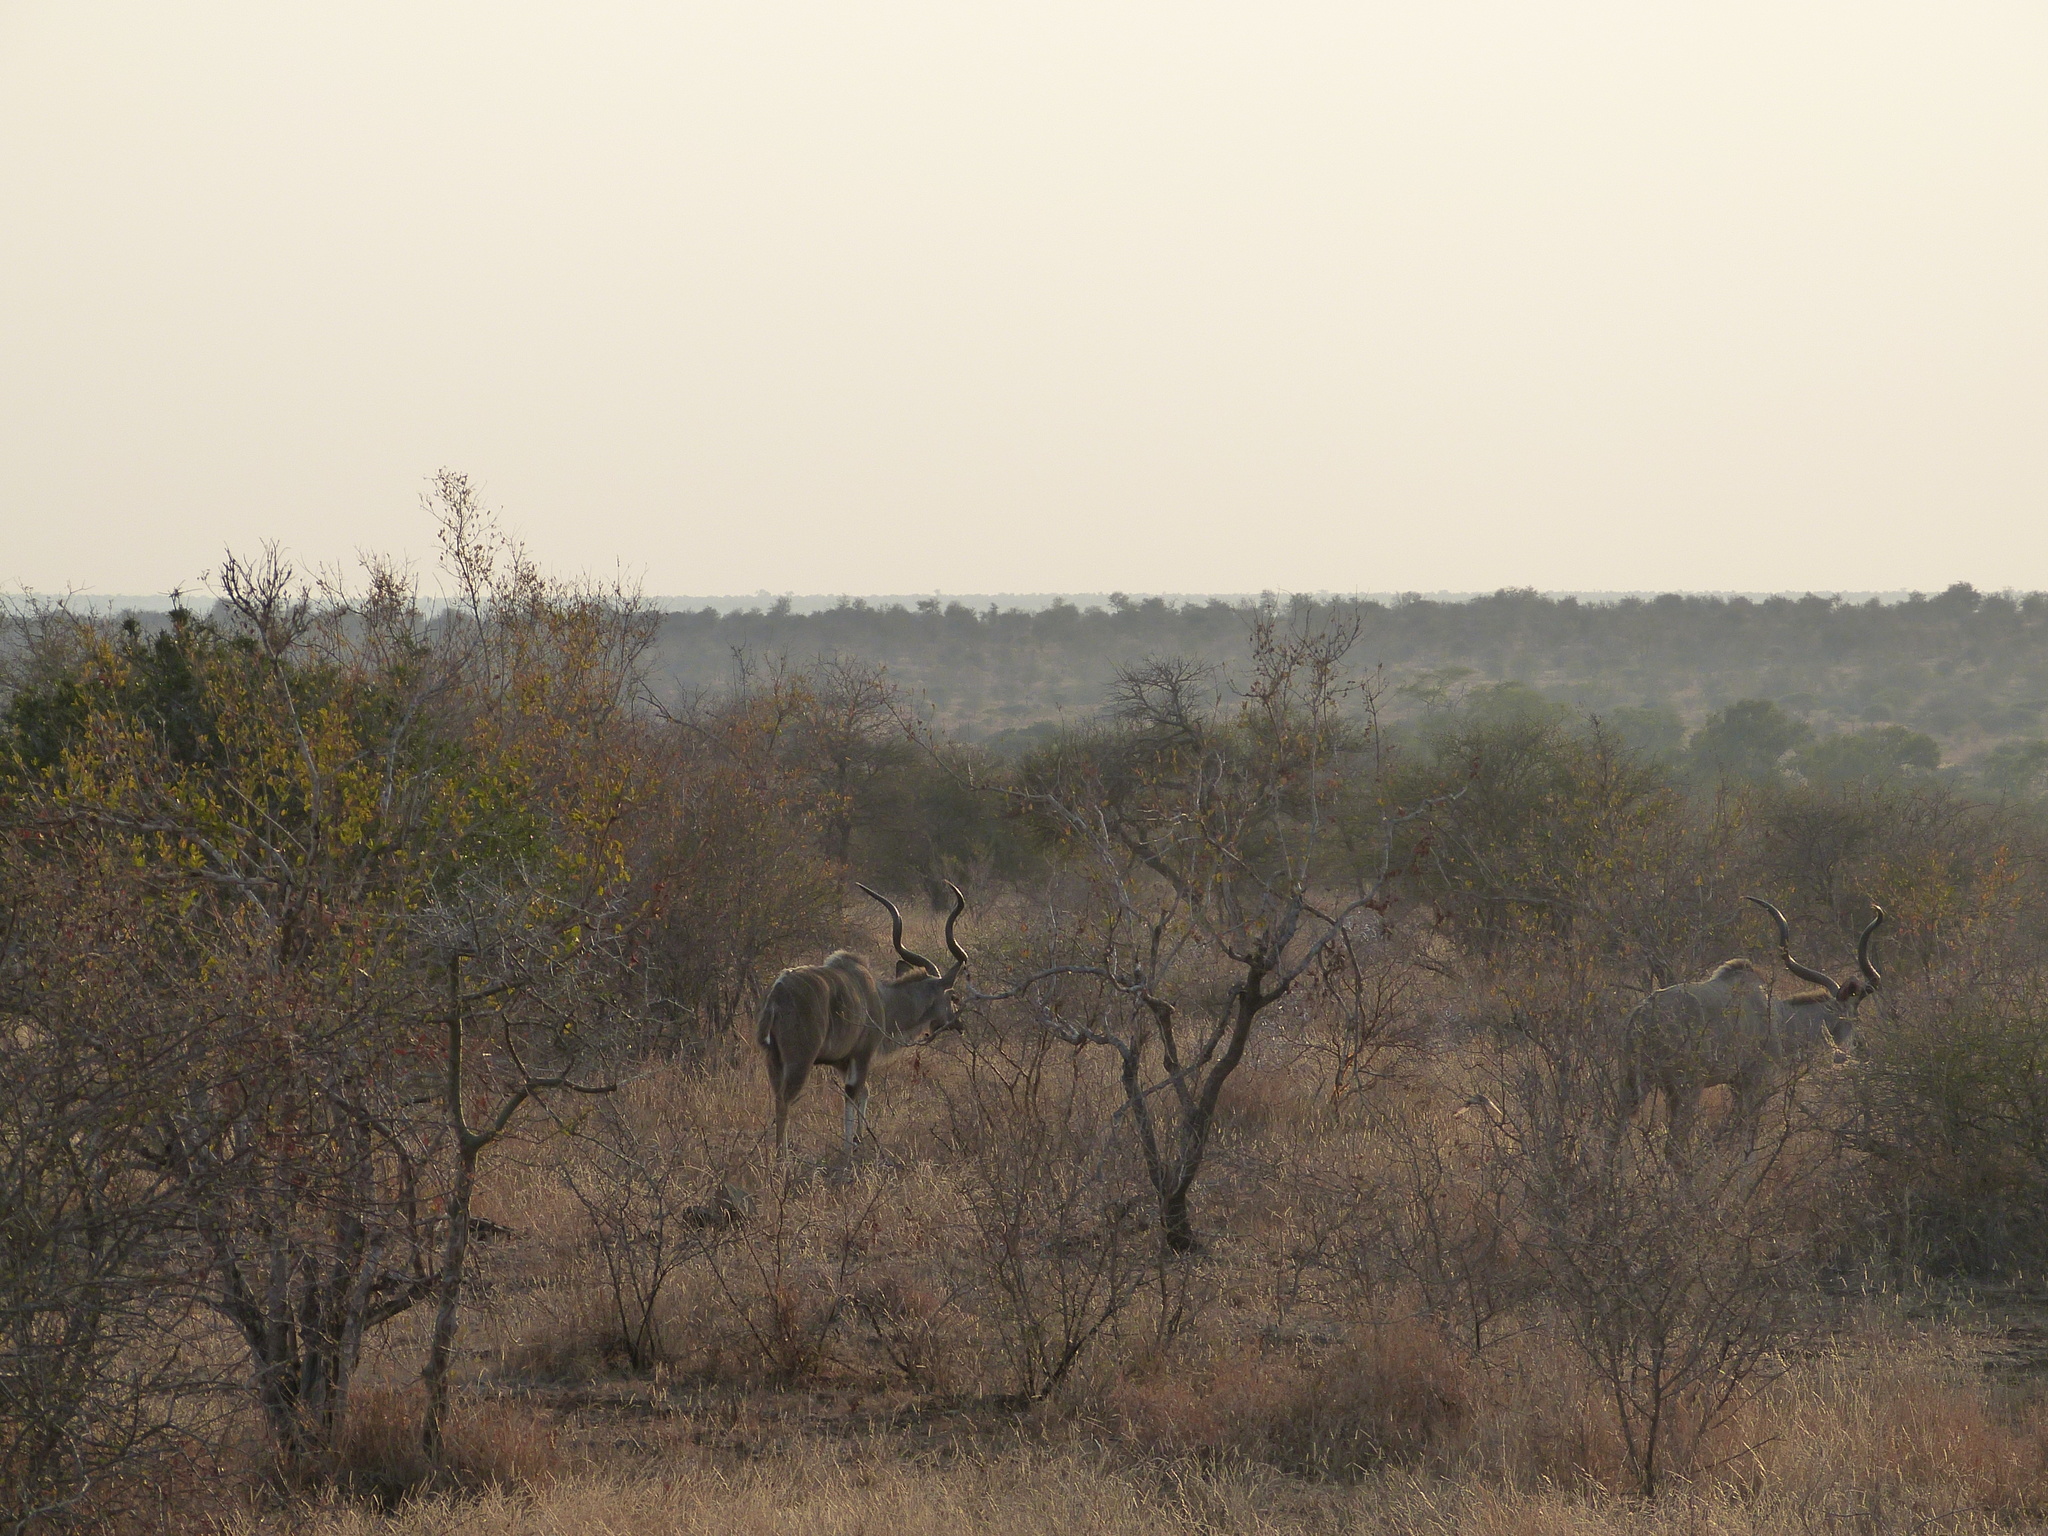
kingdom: Animalia
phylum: Chordata
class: Mammalia
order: Artiodactyla
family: Bovidae
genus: Tragelaphus
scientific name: Tragelaphus strepsiceros
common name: Greater kudu
